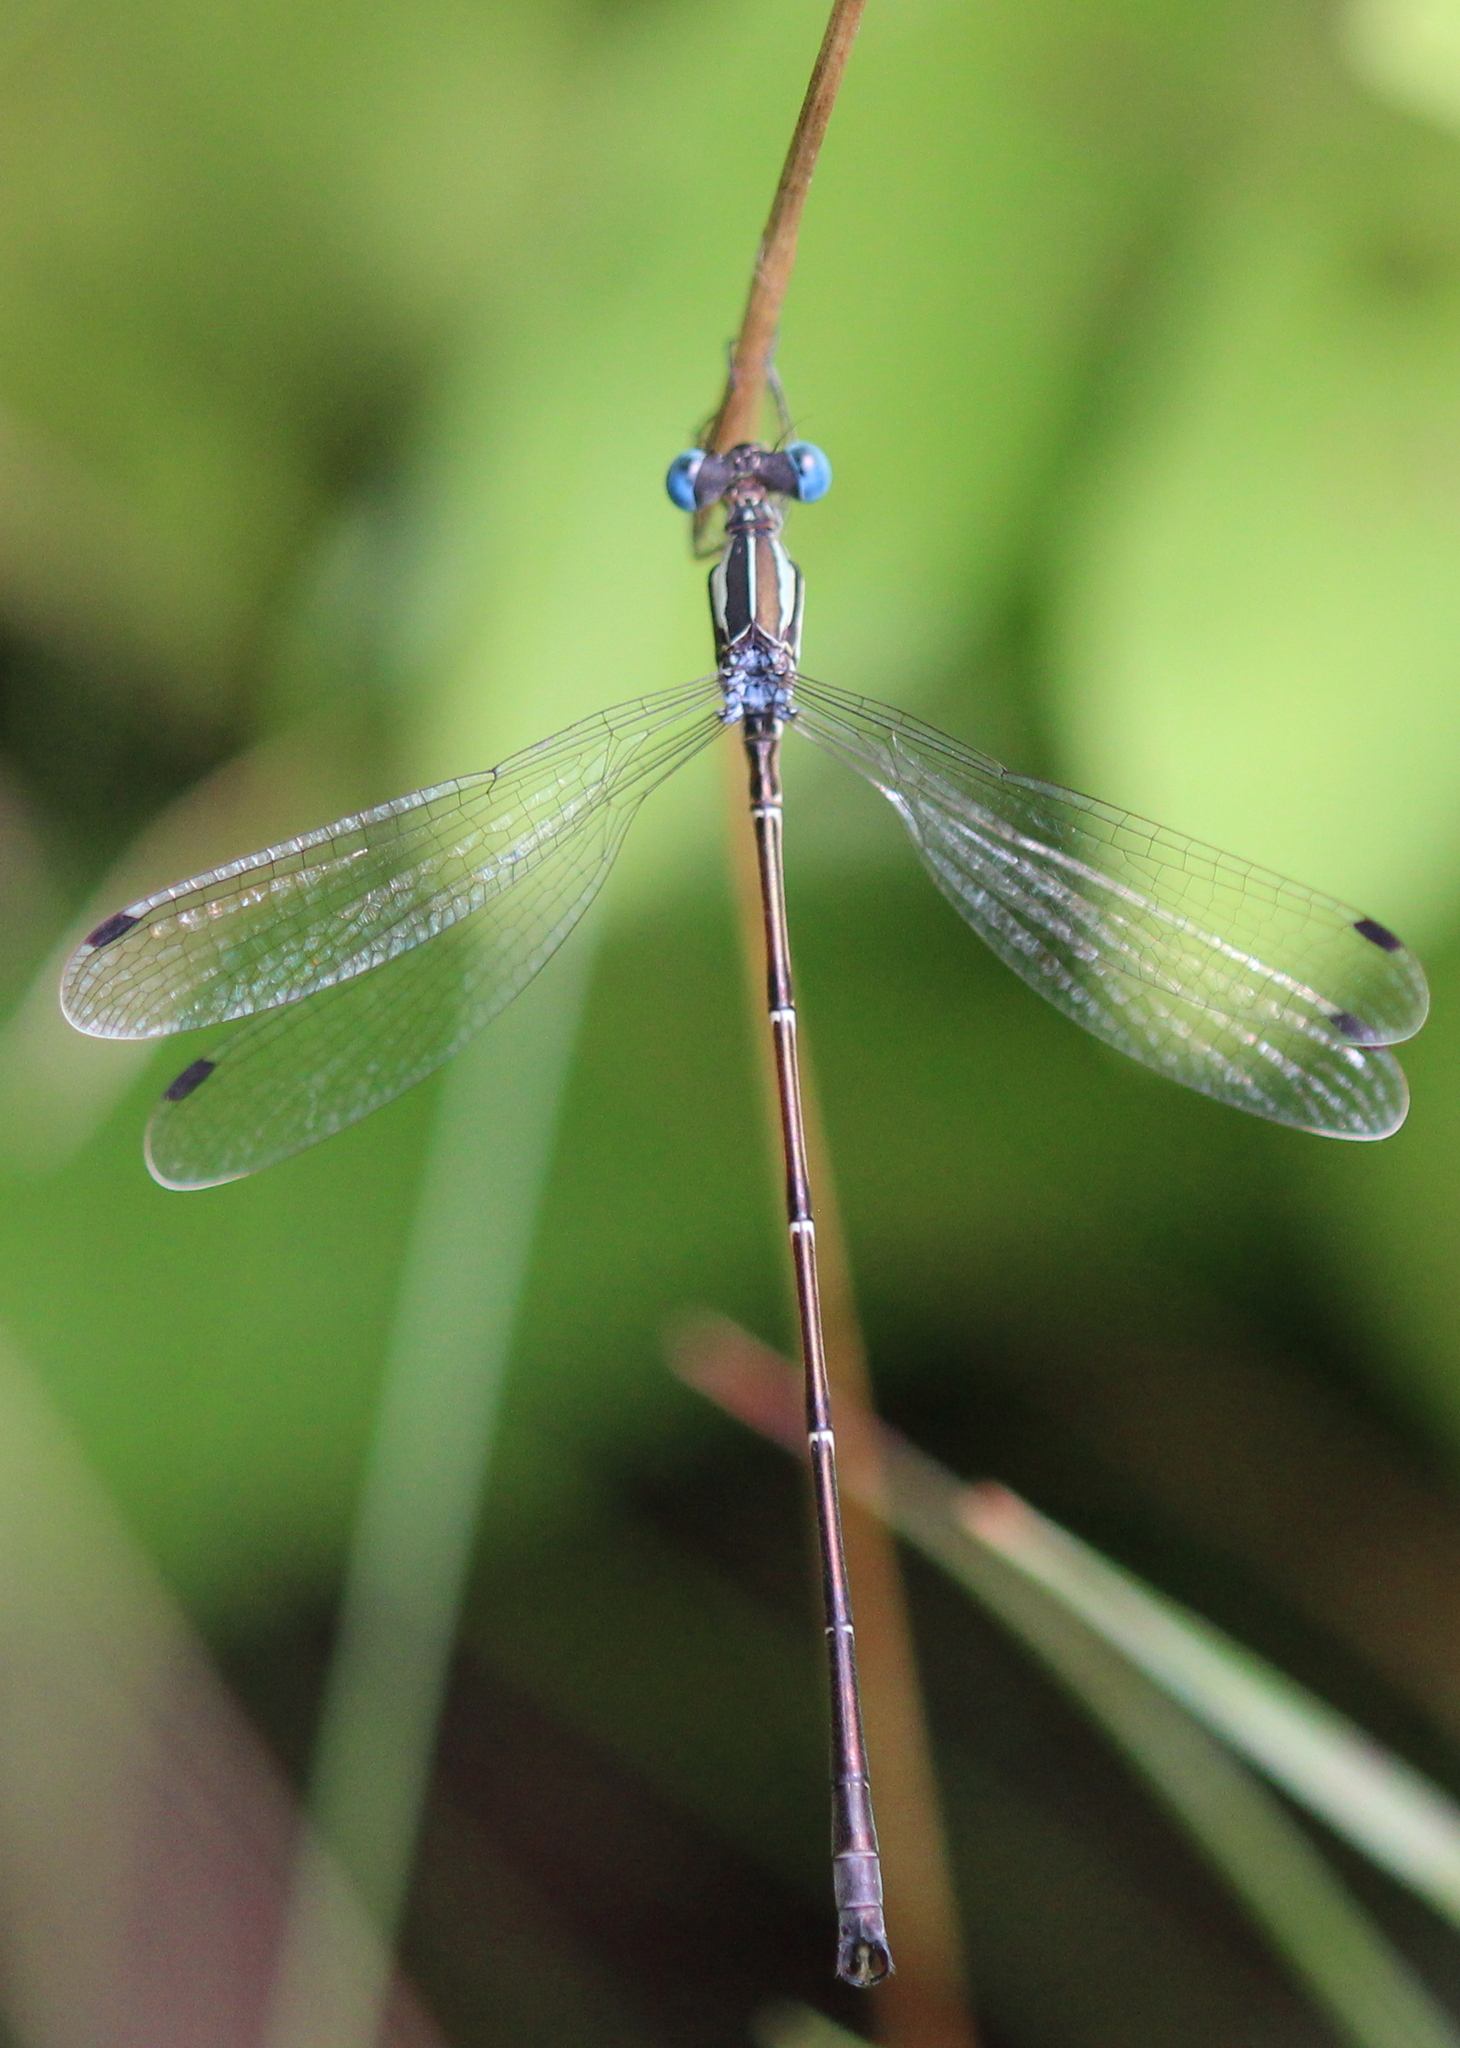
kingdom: Animalia
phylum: Arthropoda
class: Insecta
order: Odonata
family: Lestidae
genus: Lestes
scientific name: Lestes rectangularis
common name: Slender spreadwing
